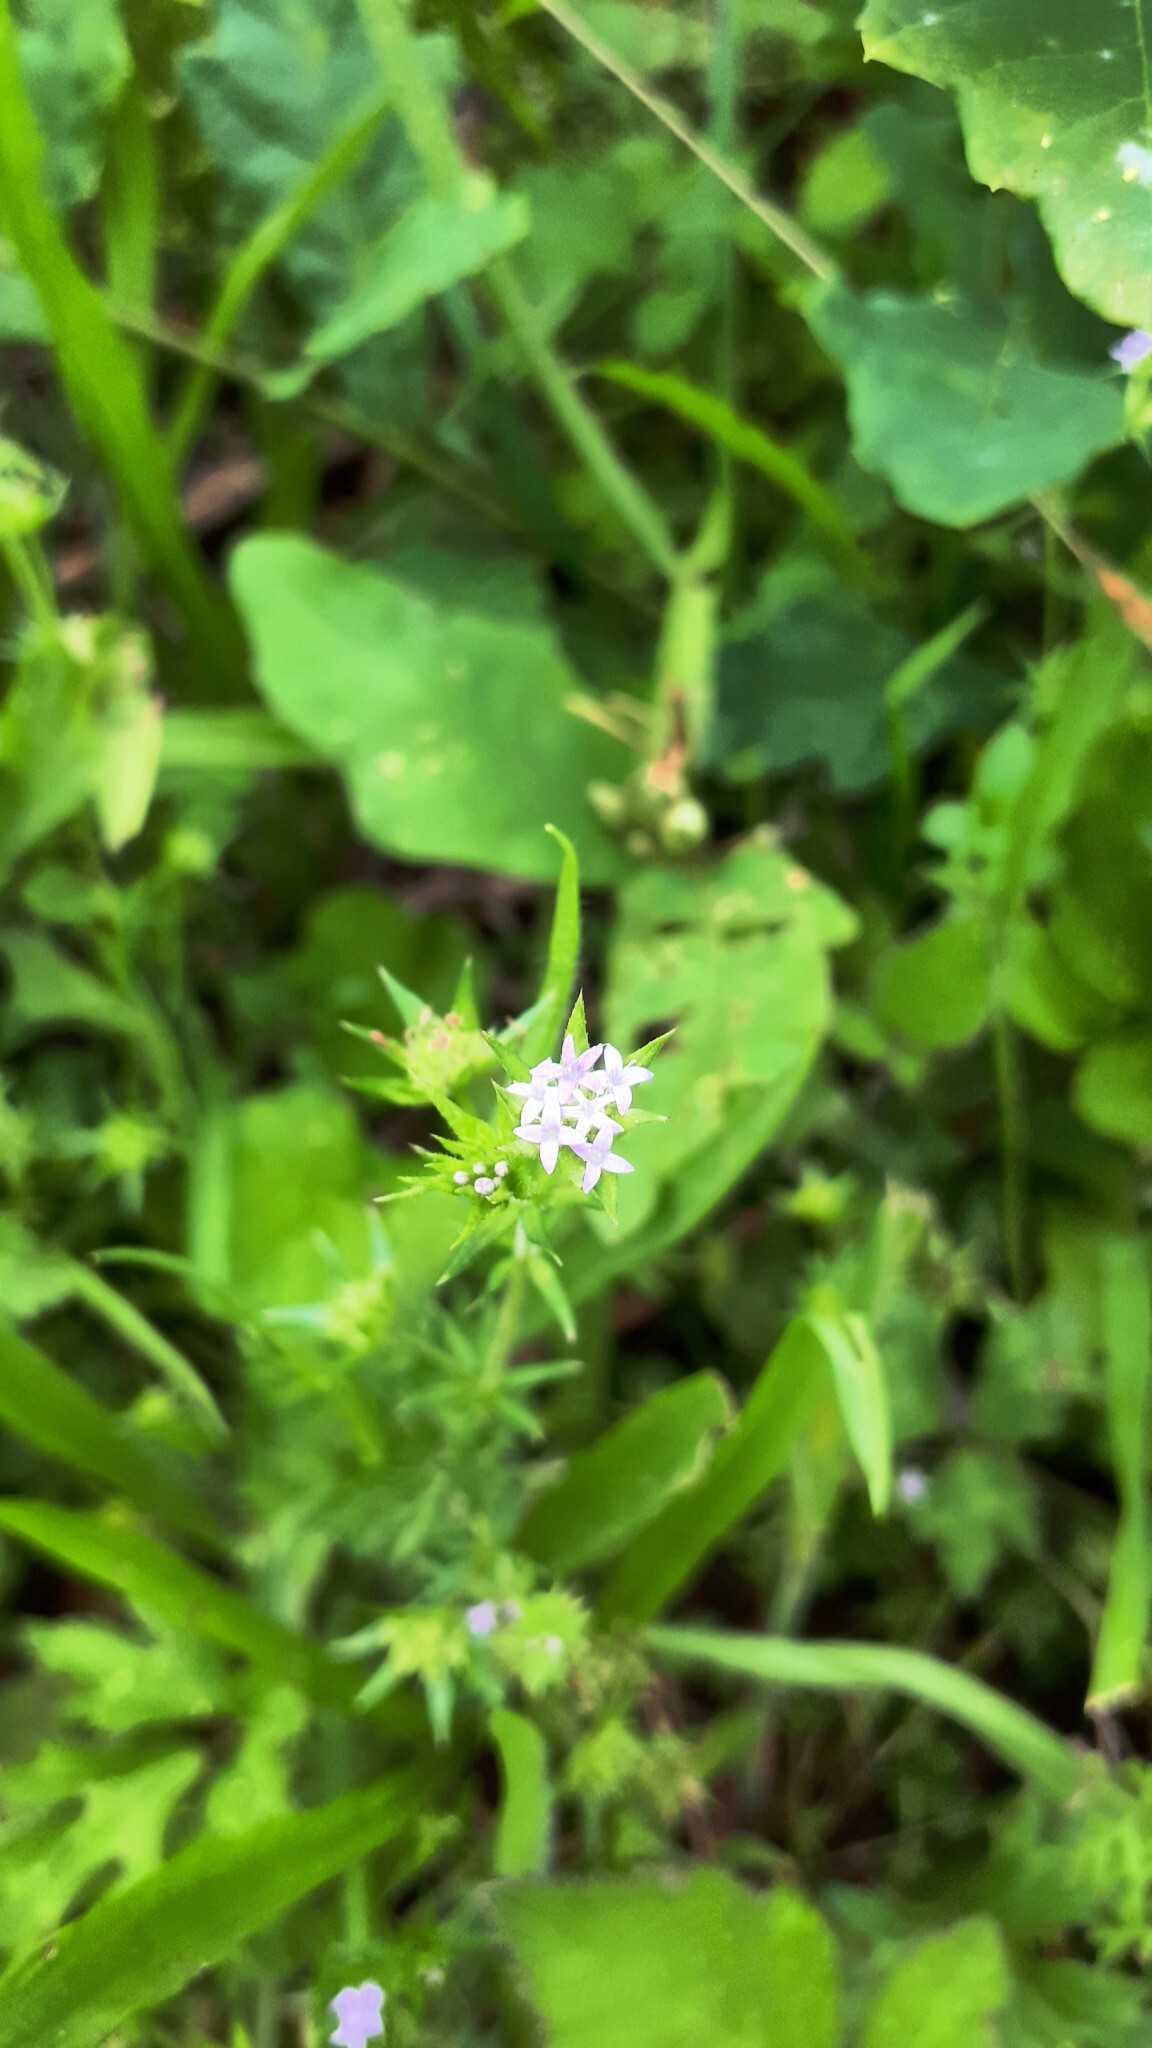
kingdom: Plantae
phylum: Tracheophyta
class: Magnoliopsida
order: Gentianales
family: Rubiaceae
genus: Sherardia
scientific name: Sherardia arvensis
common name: Field madder
